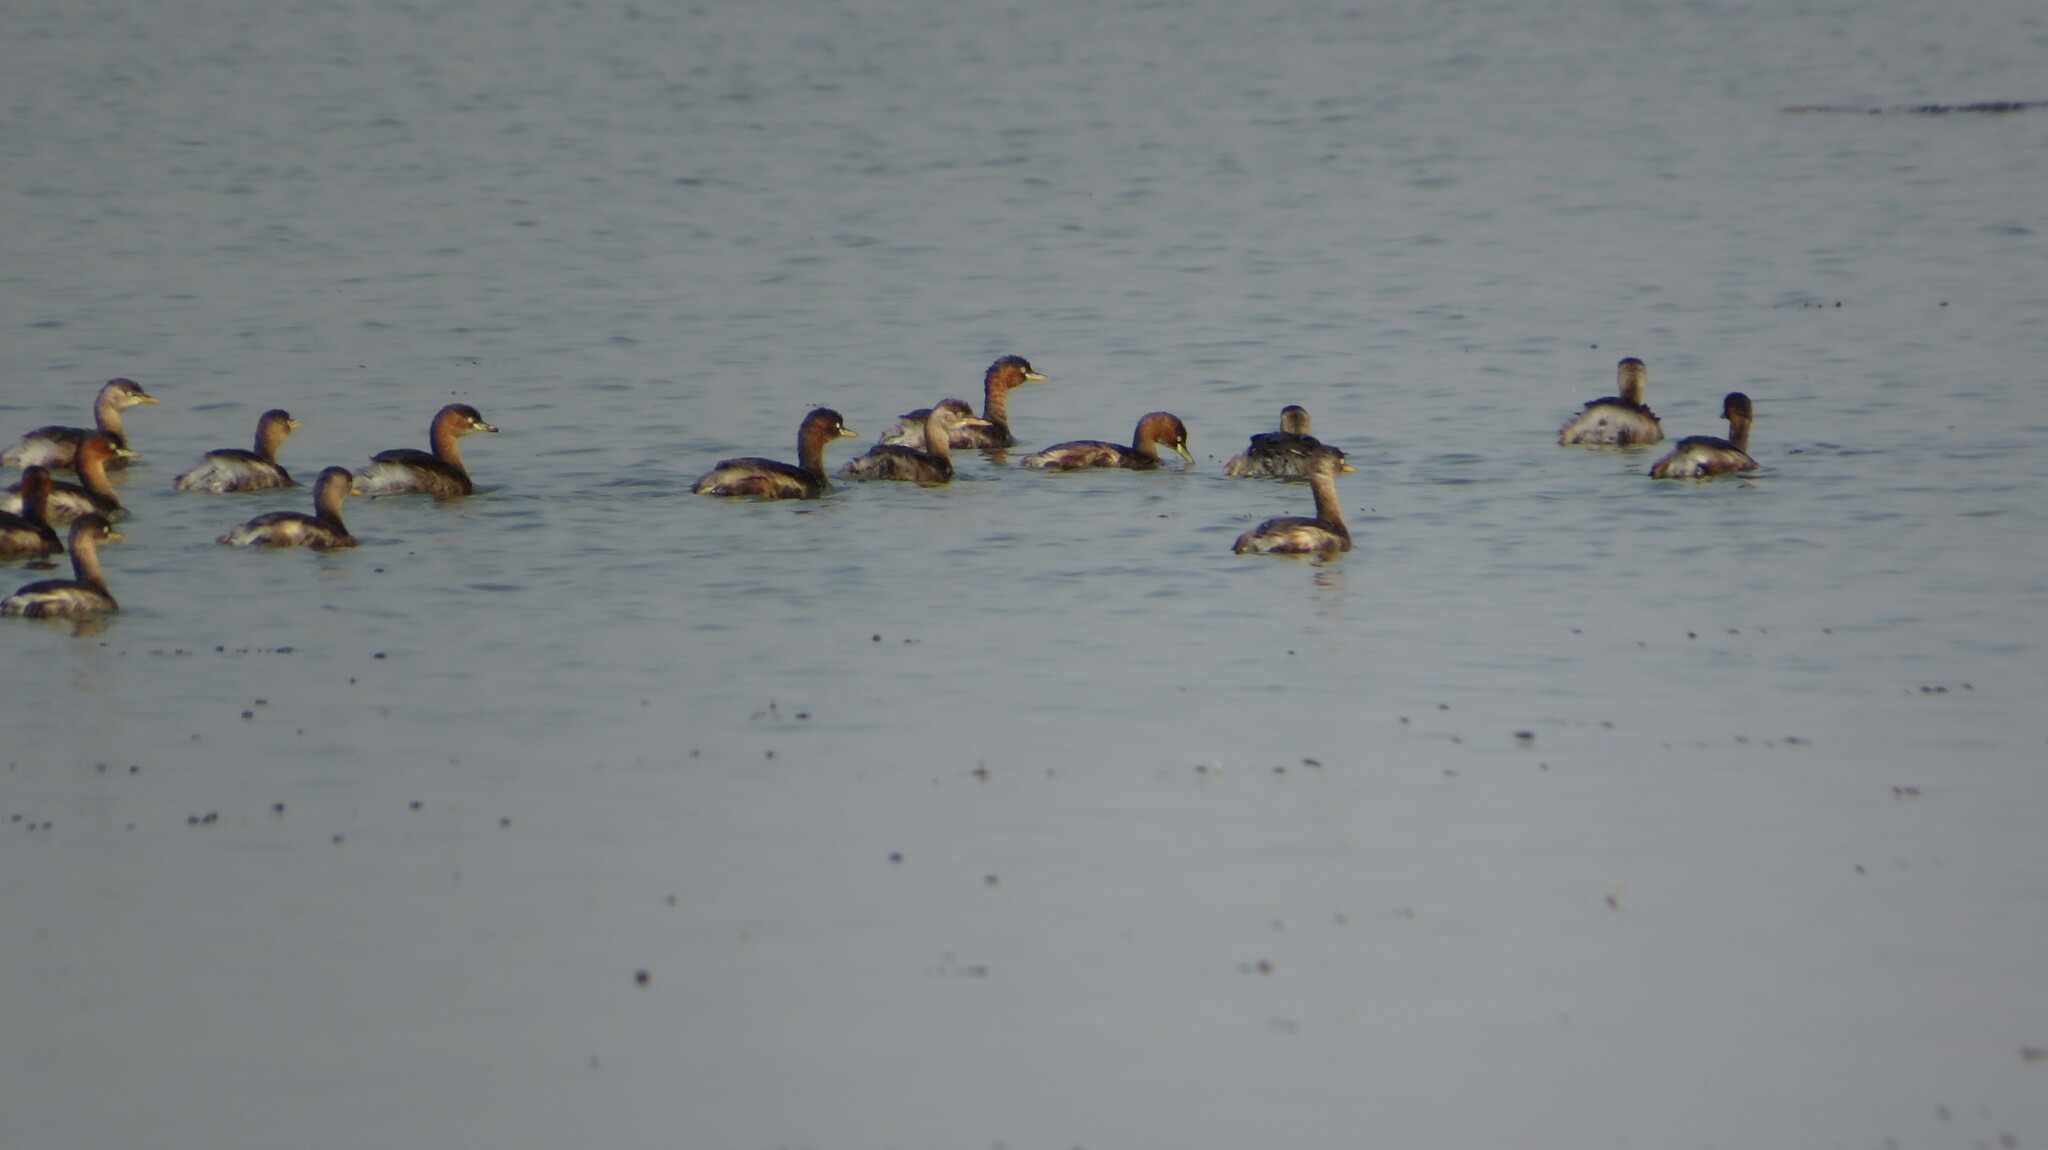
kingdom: Animalia
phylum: Chordata
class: Aves
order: Podicipediformes
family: Podicipedidae
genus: Tachybaptus
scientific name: Tachybaptus ruficollis
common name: Little grebe
